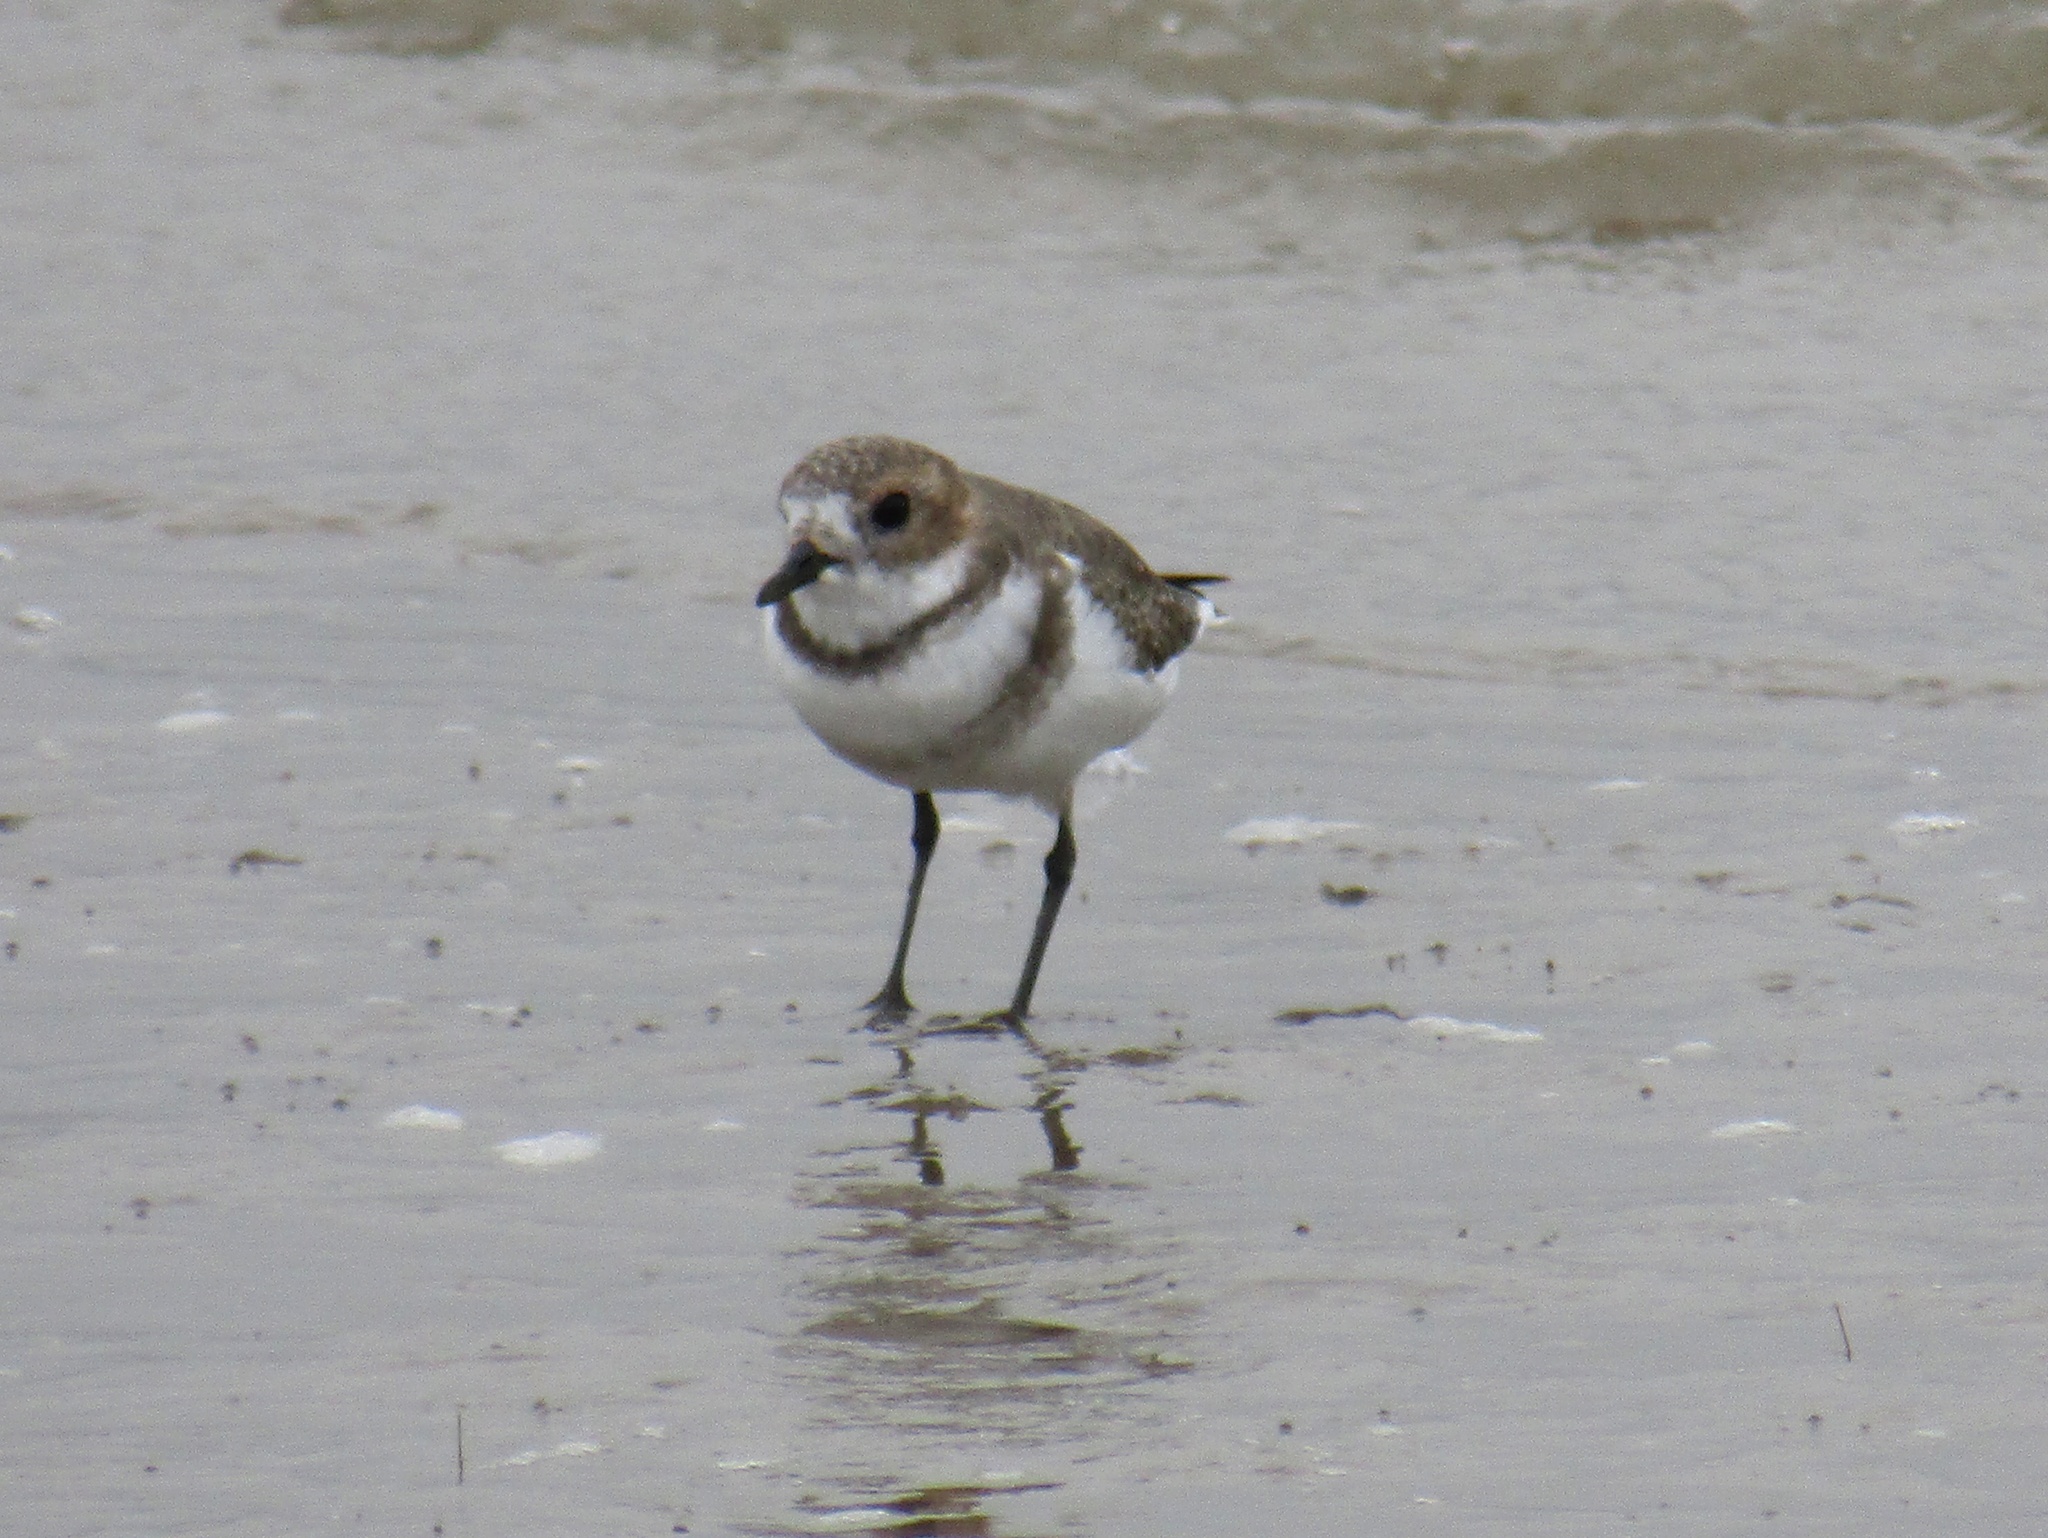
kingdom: Animalia
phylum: Chordata
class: Aves
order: Charadriiformes
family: Charadriidae
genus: Anarhynchus
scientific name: Anarhynchus
